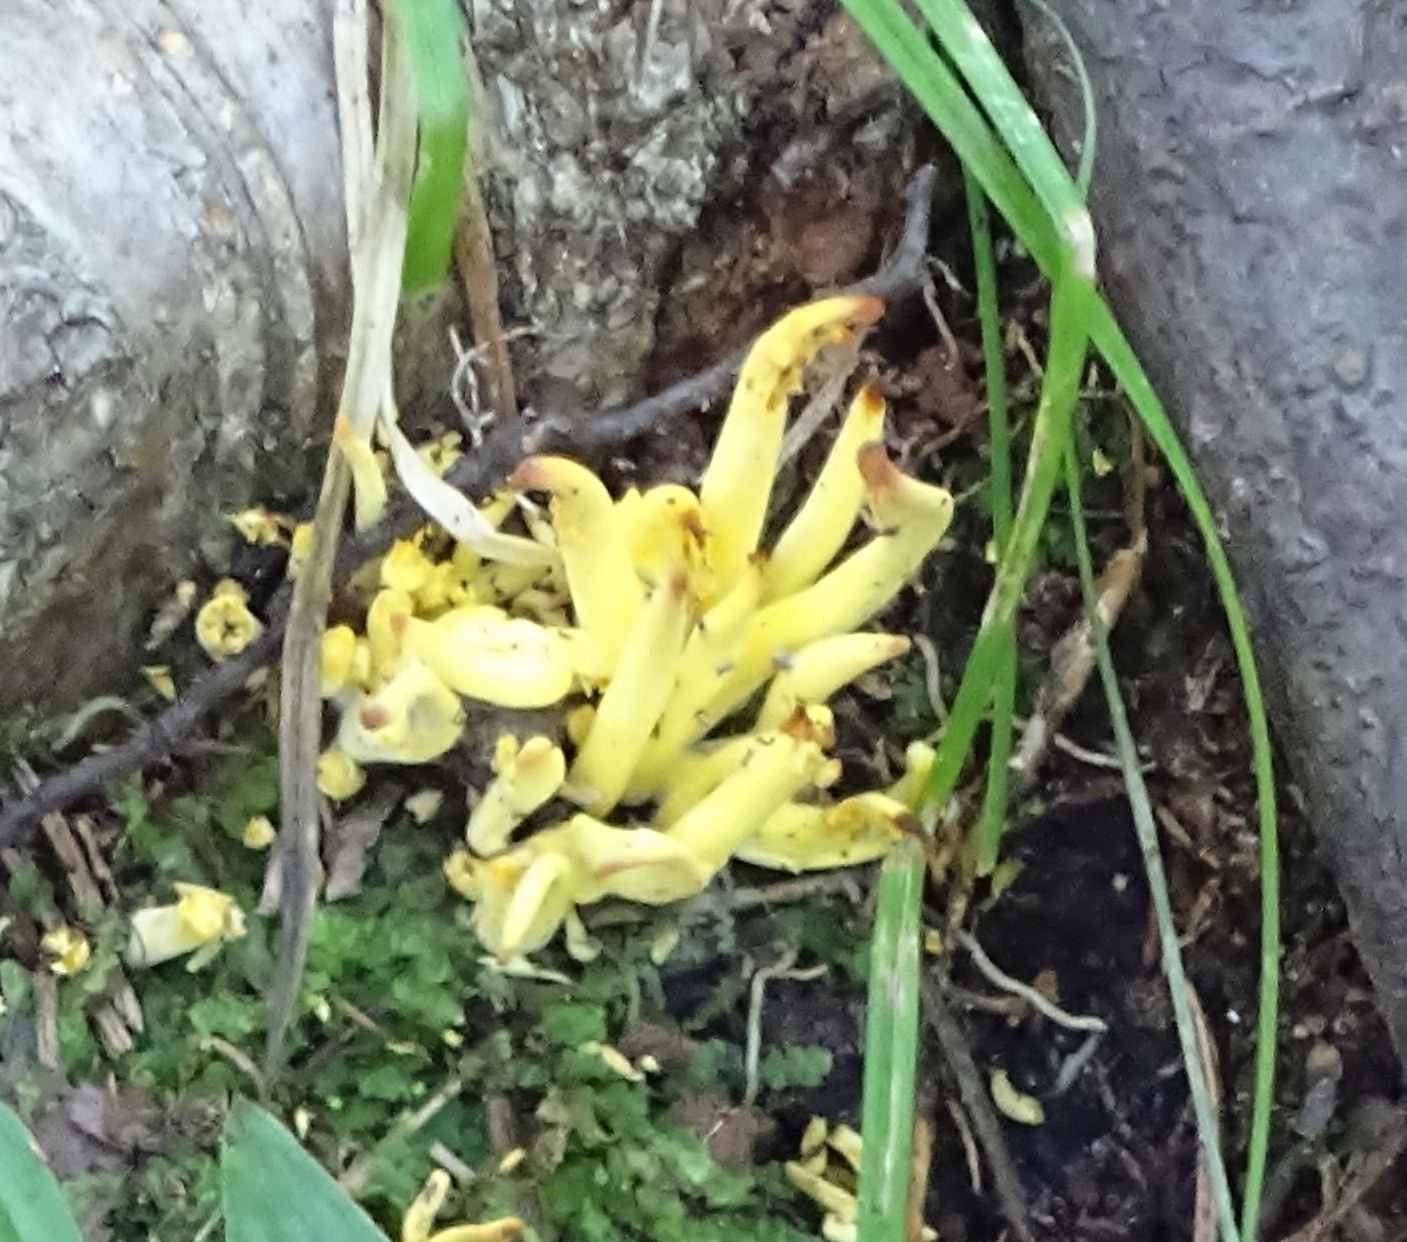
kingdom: Fungi
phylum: Basidiomycota
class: Agaricomycetes
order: Agaricales
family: Clavariaceae
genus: Clavulinopsis
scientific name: Clavulinopsis fusiformis
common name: Golden spindles
